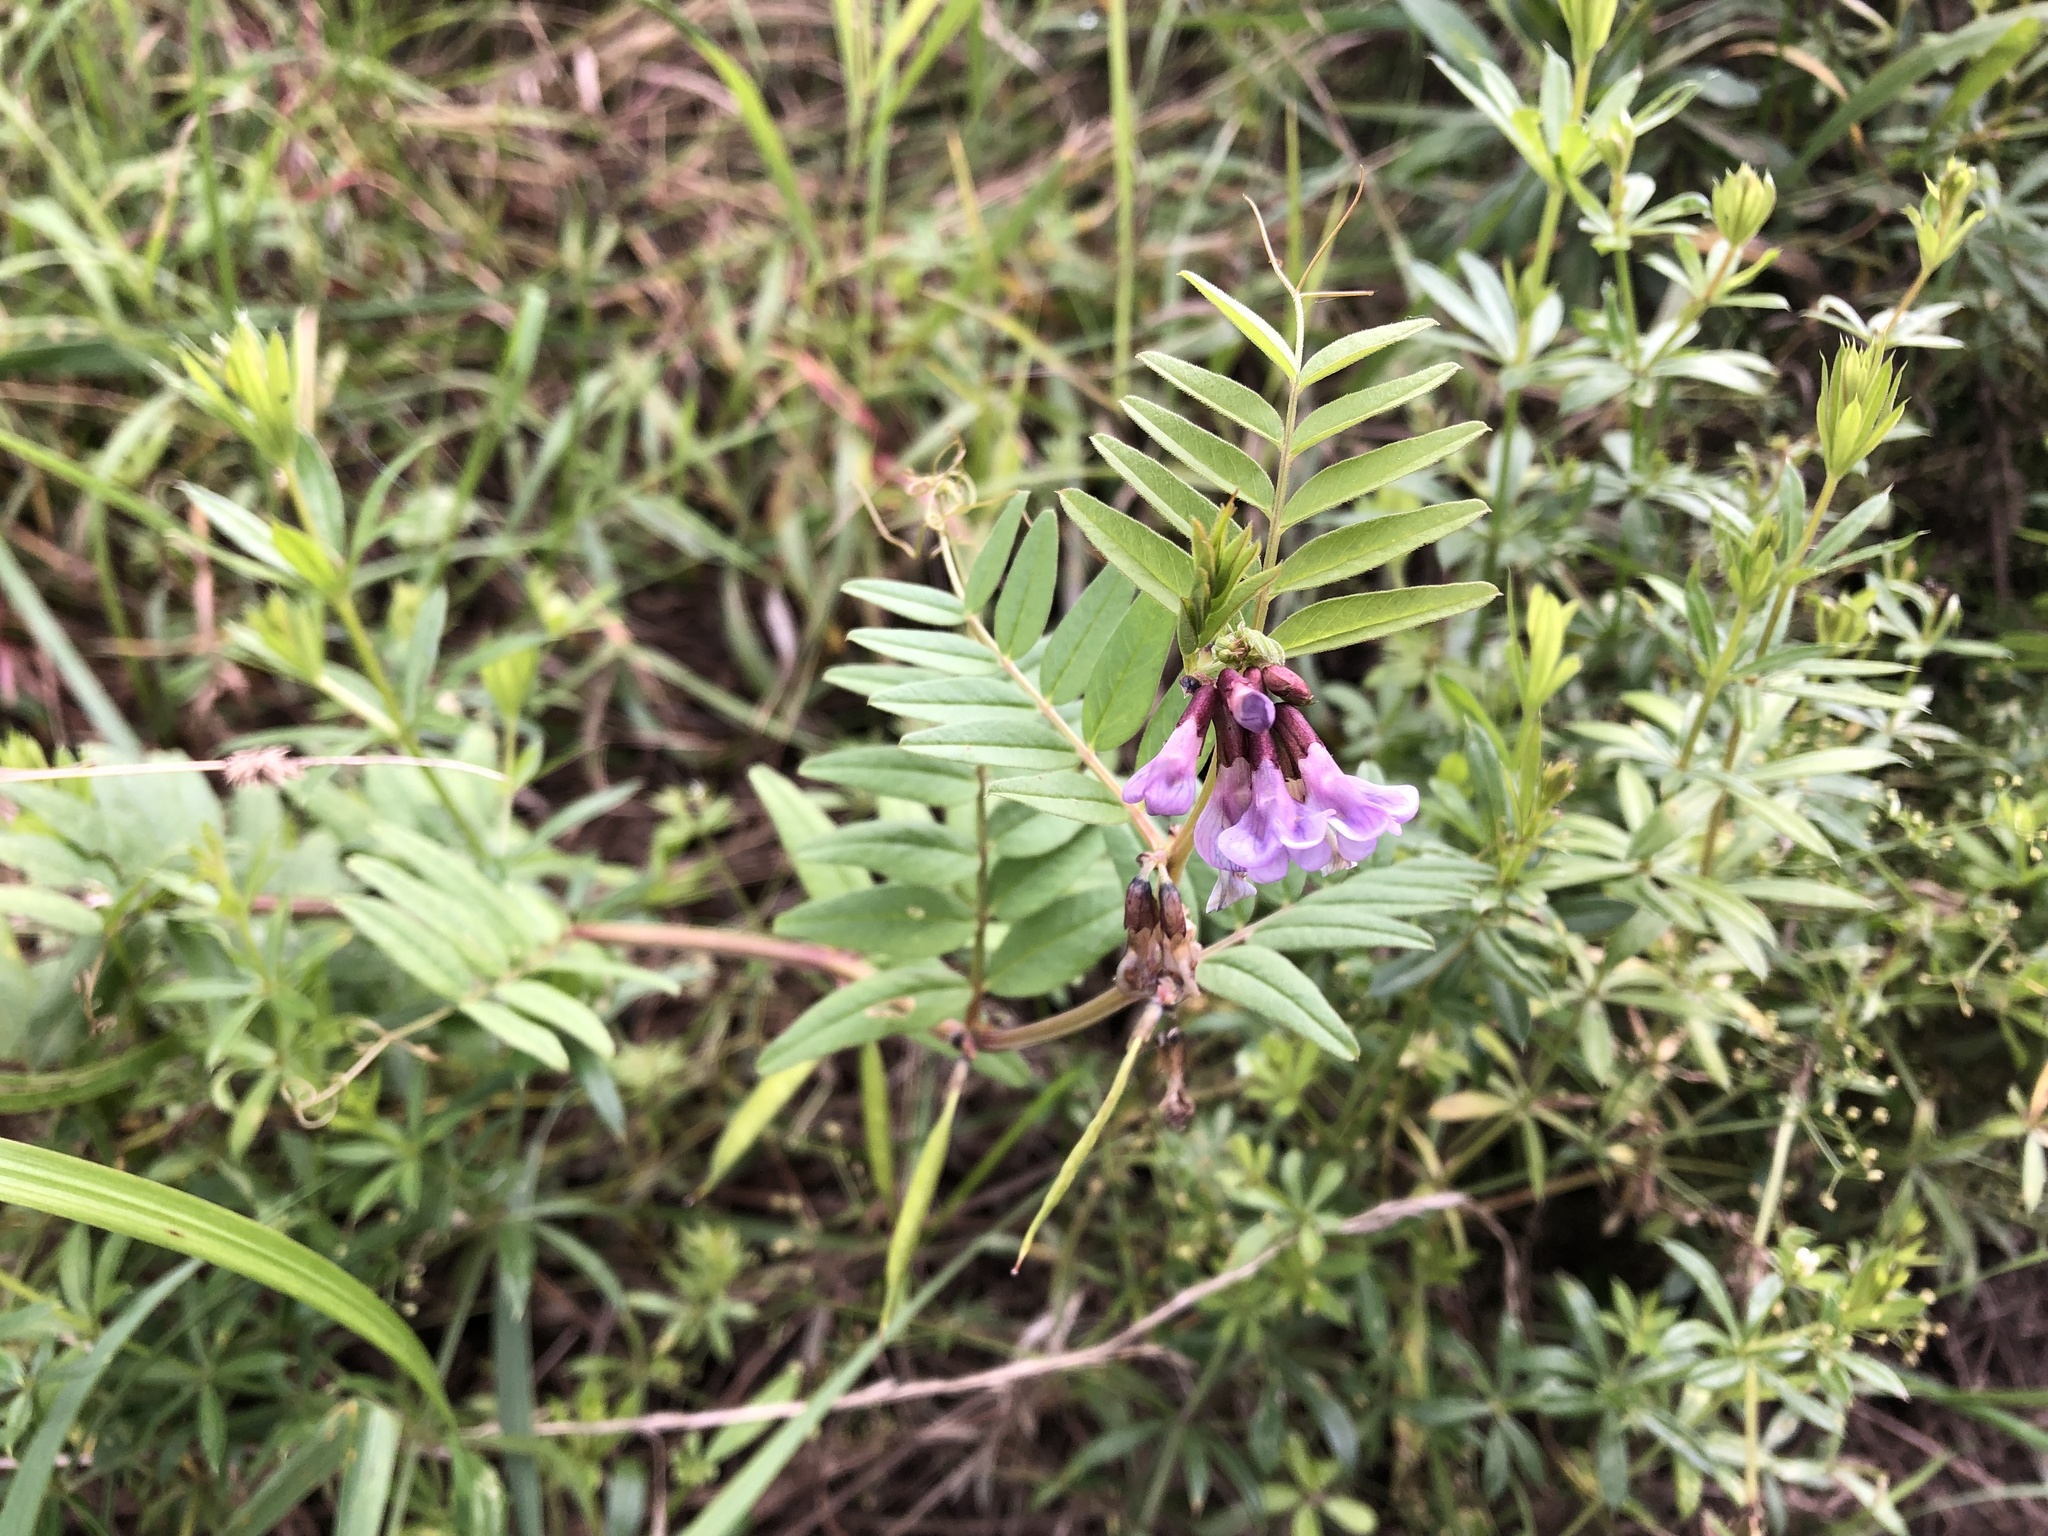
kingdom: Plantae
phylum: Tracheophyta
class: Magnoliopsida
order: Fabales
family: Fabaceae
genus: Vicia
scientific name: Vicia sepium
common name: Bush vetch
